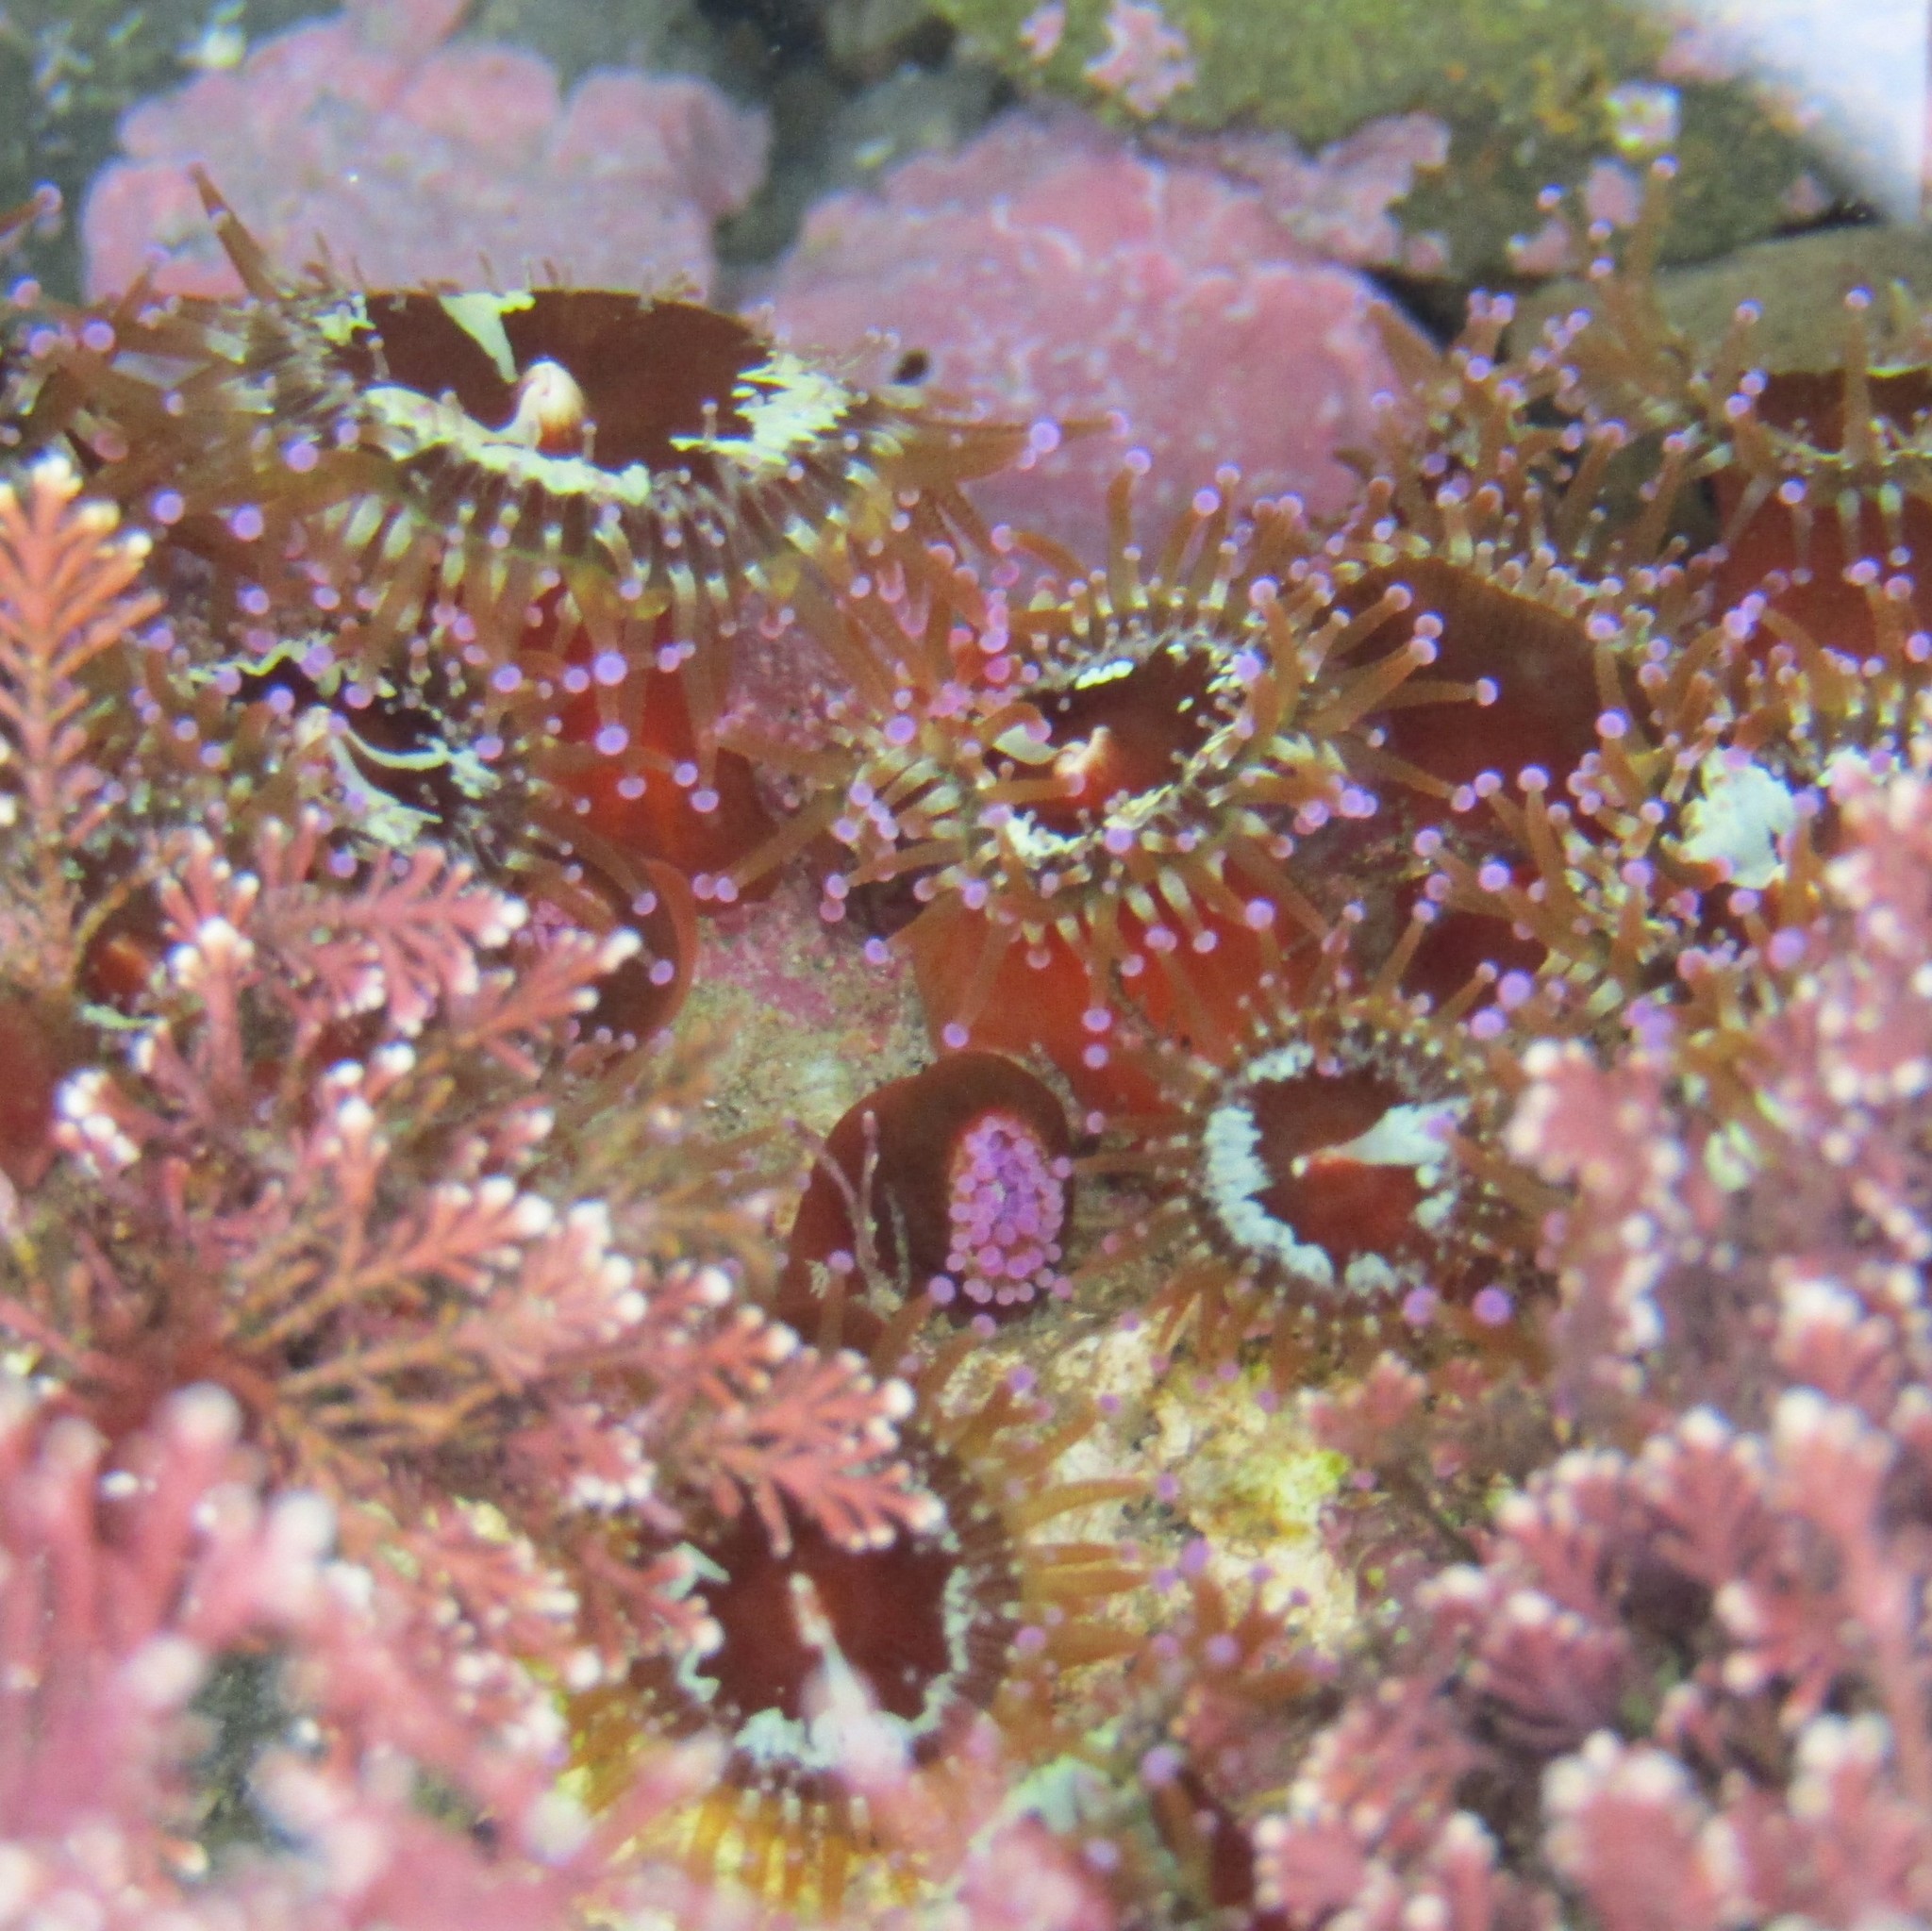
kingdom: Animalia
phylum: Cnidaria
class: Anthozoa
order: Corallimorpharia
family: Corallimorphidae
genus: Corynactis
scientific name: Corynactis australis
